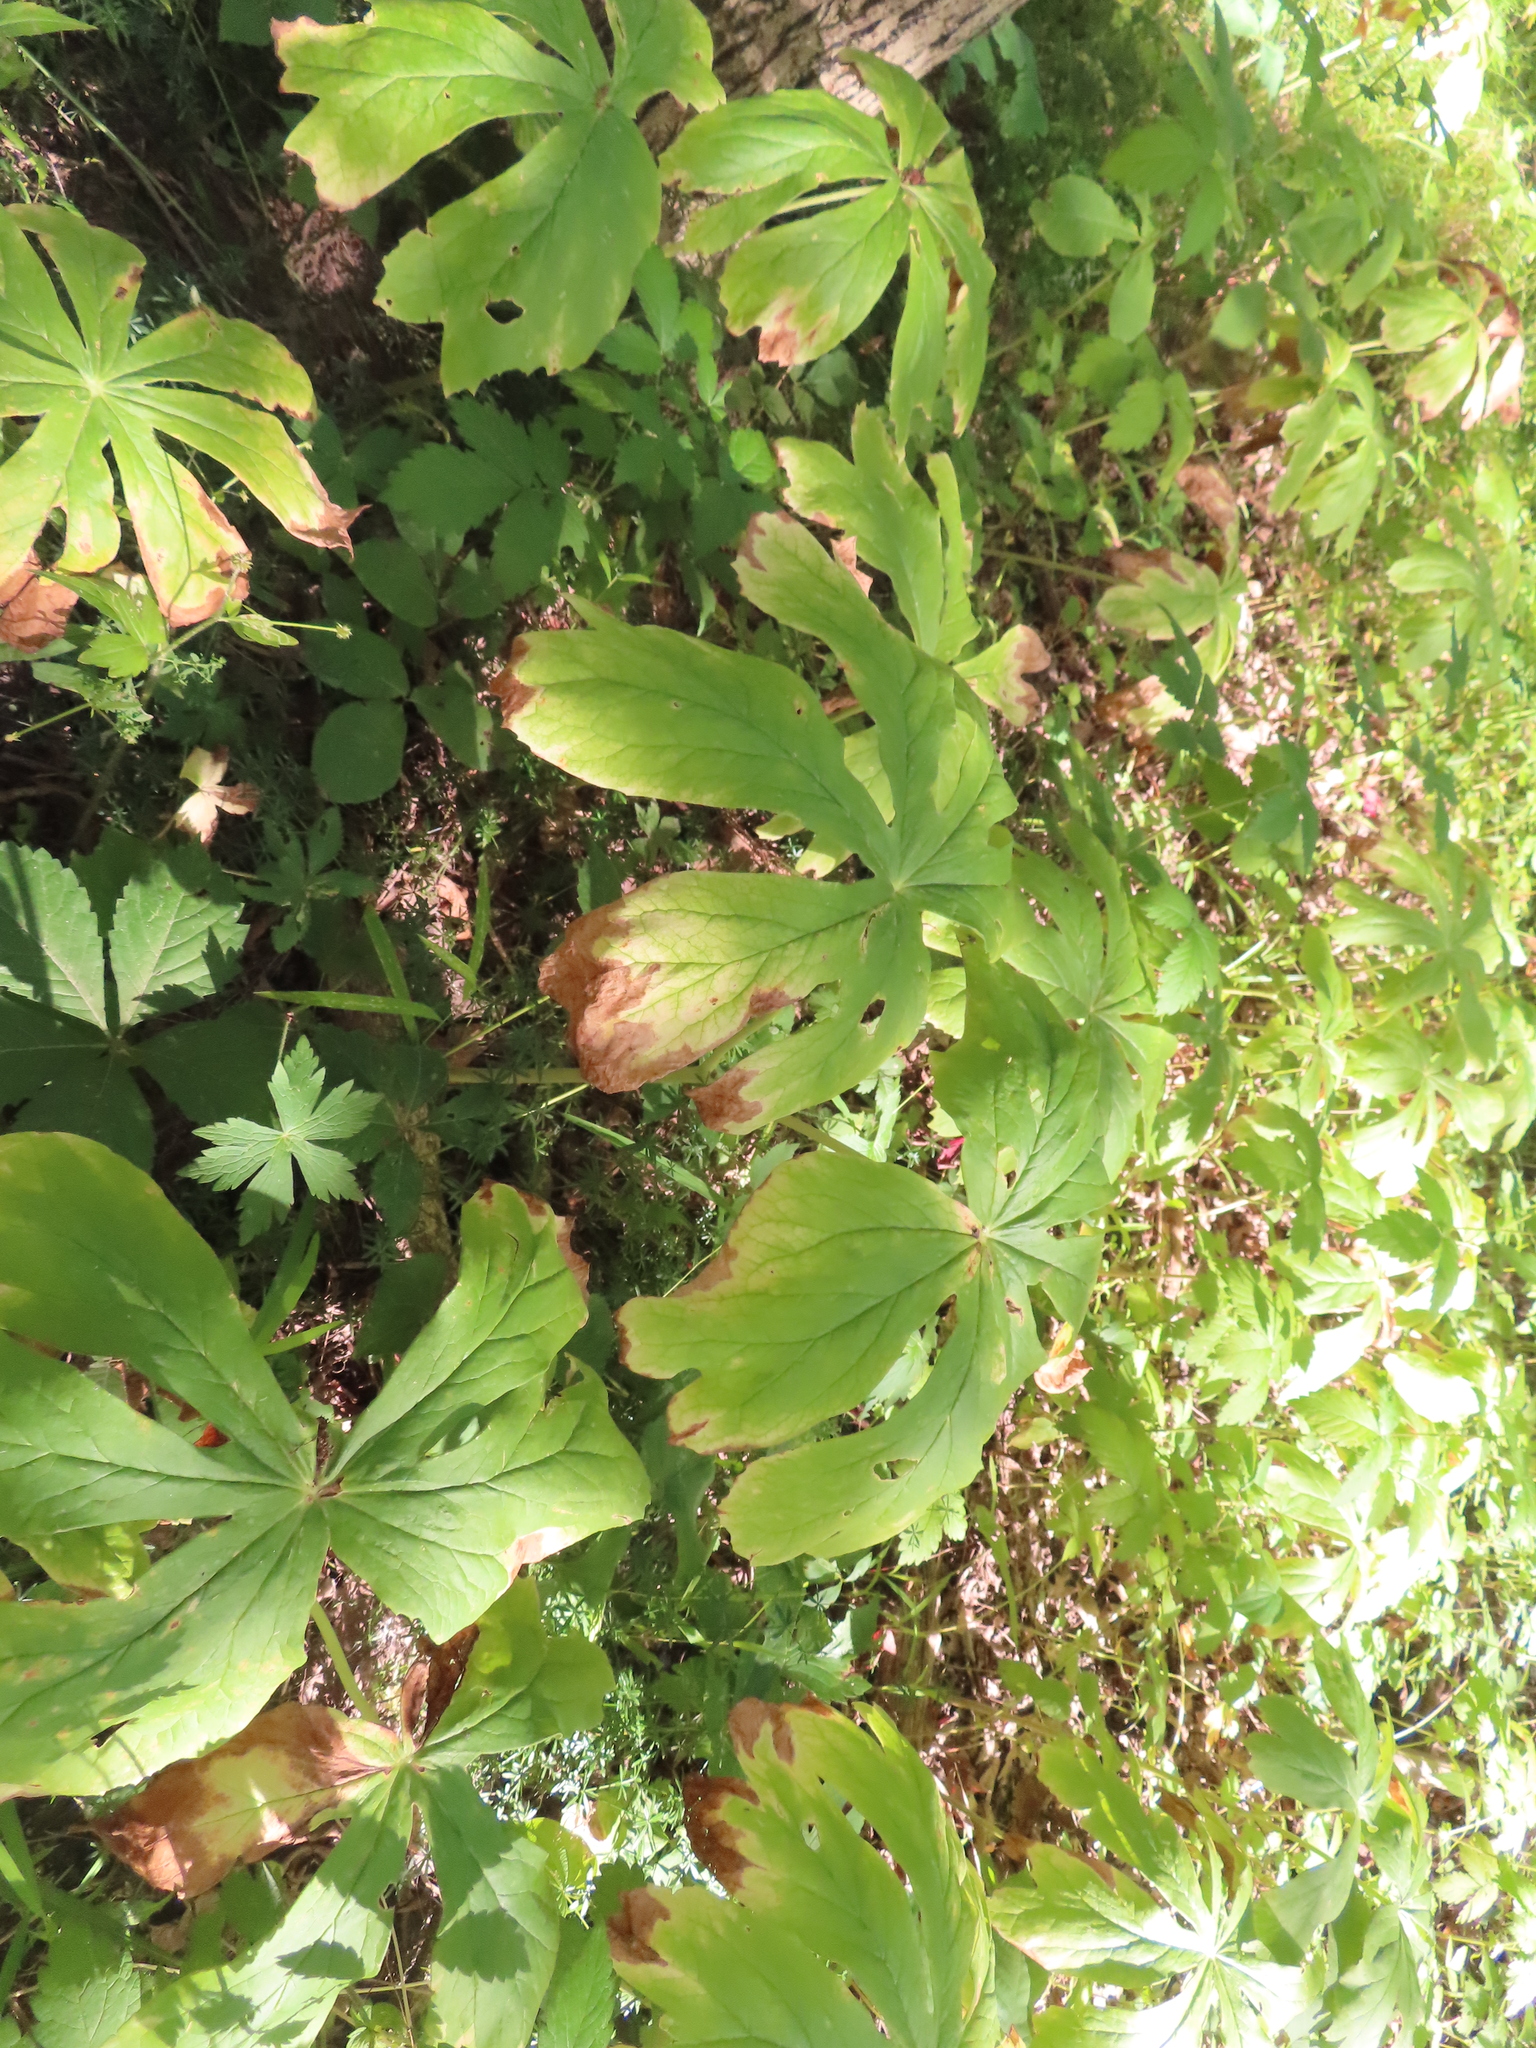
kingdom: Plantae
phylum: Tracheophyta
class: Magnoliopsida
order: Ranunculales
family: Berberidaceae
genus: Podophyllum
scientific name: Podophyllum peltatum
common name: Wild mandrake
